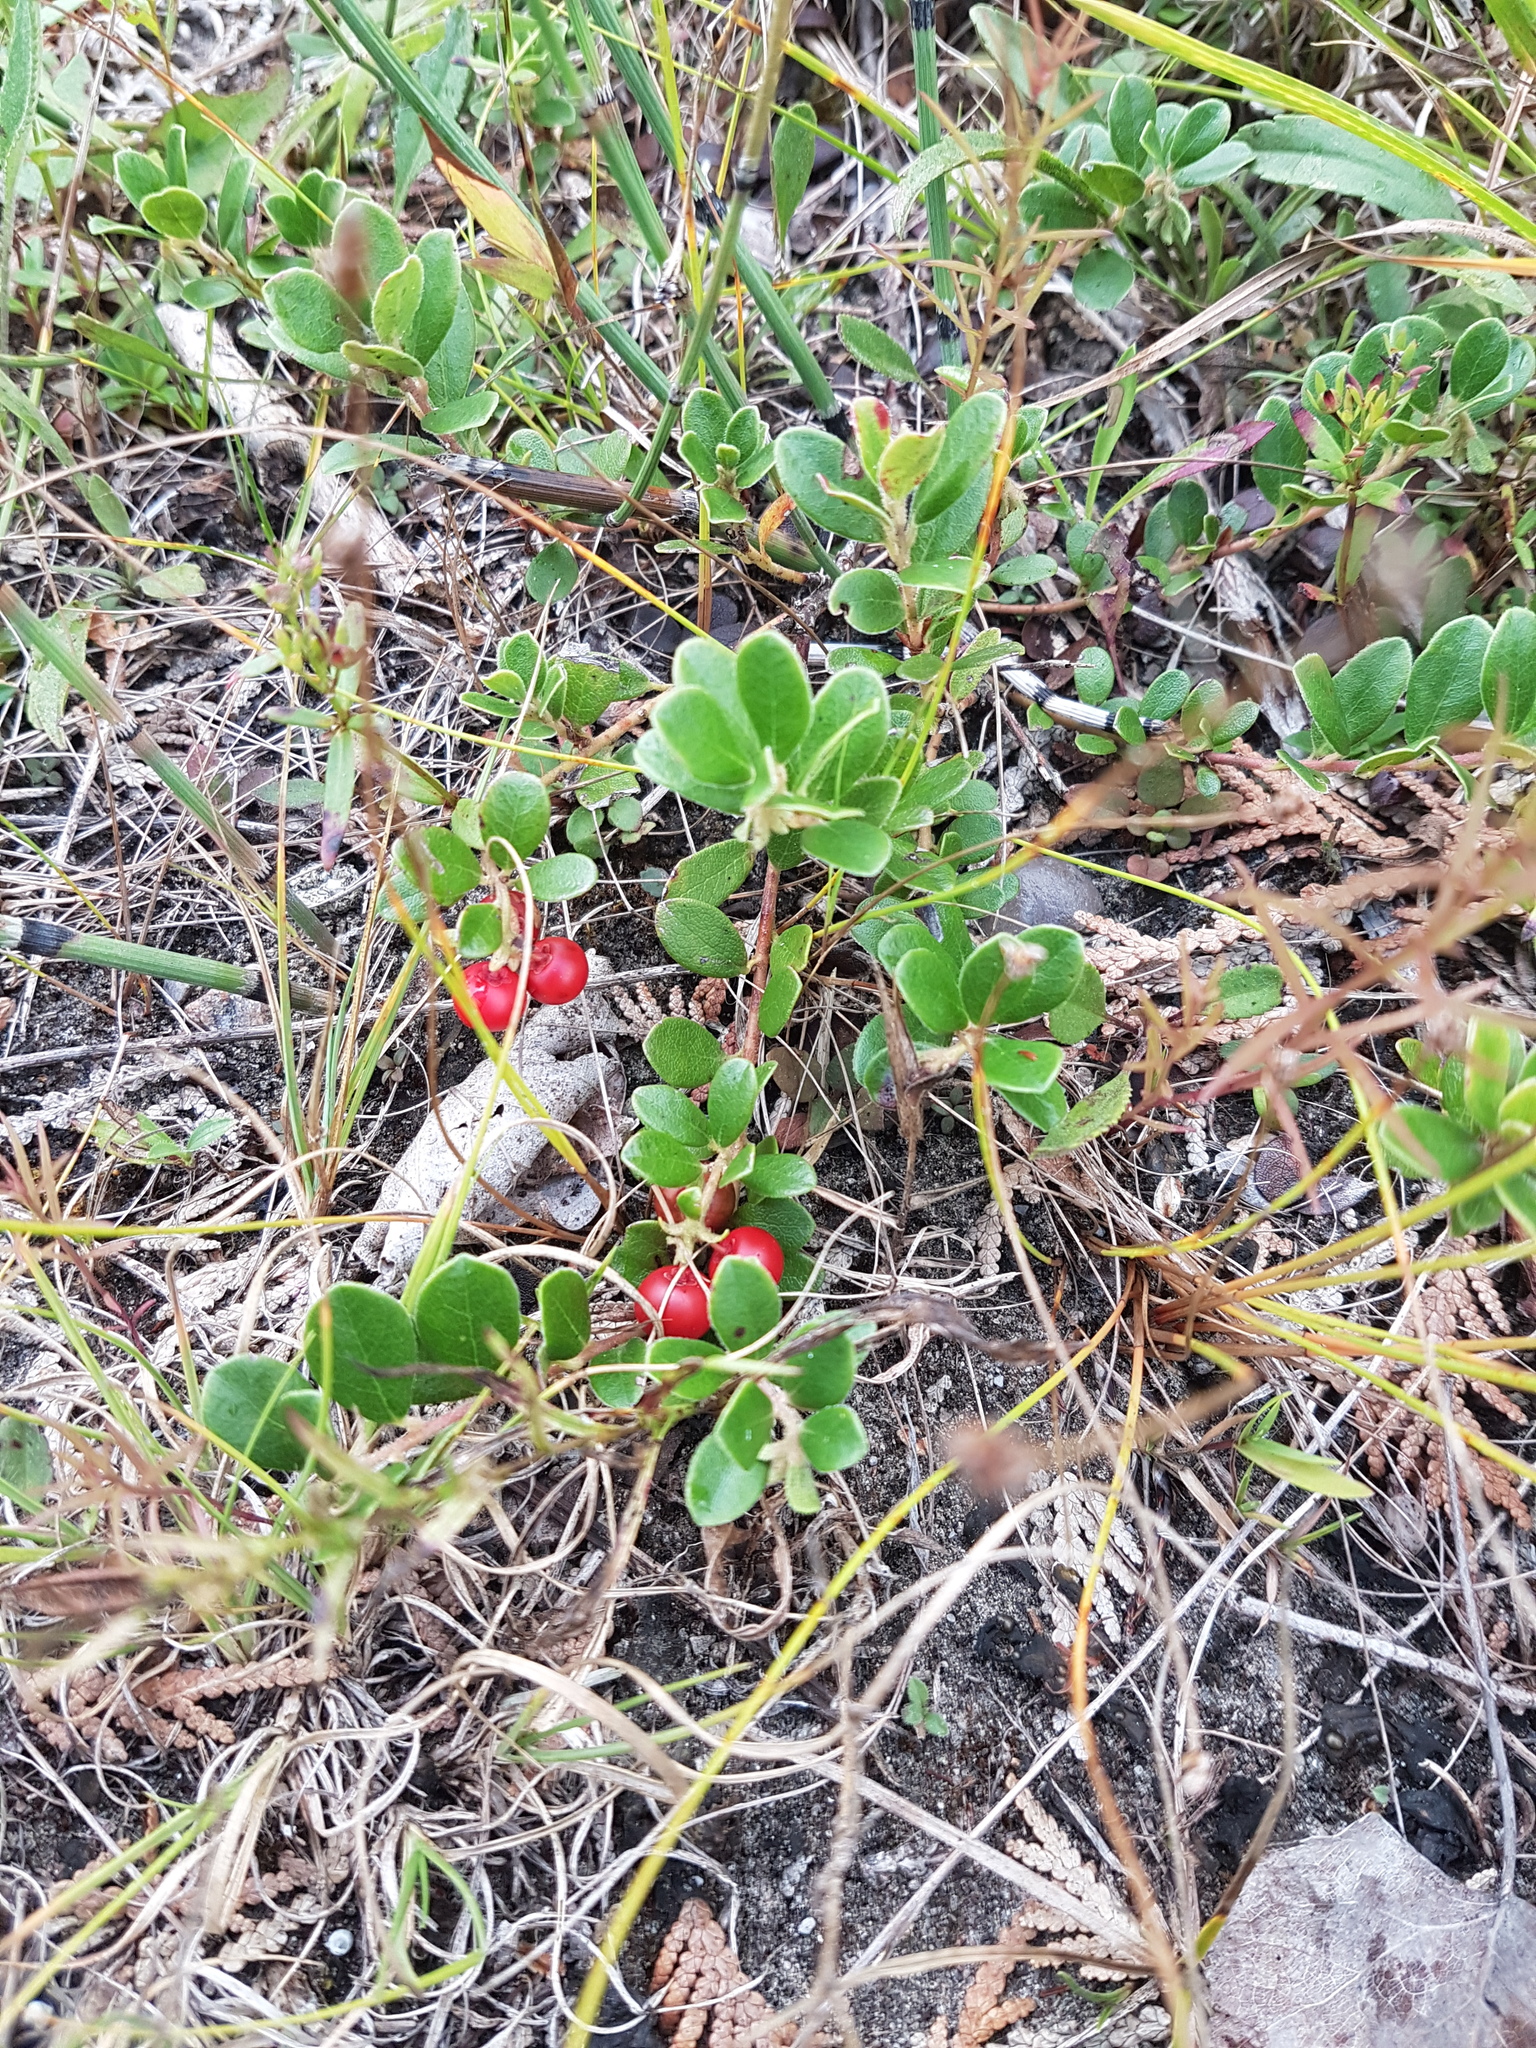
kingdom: Plantae
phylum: Tracheophyta
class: Magnoliopsida
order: Ericales
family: Ericaceae
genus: Arctostaphylos
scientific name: Arctostaphylos uva-ursi
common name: Bearberry
